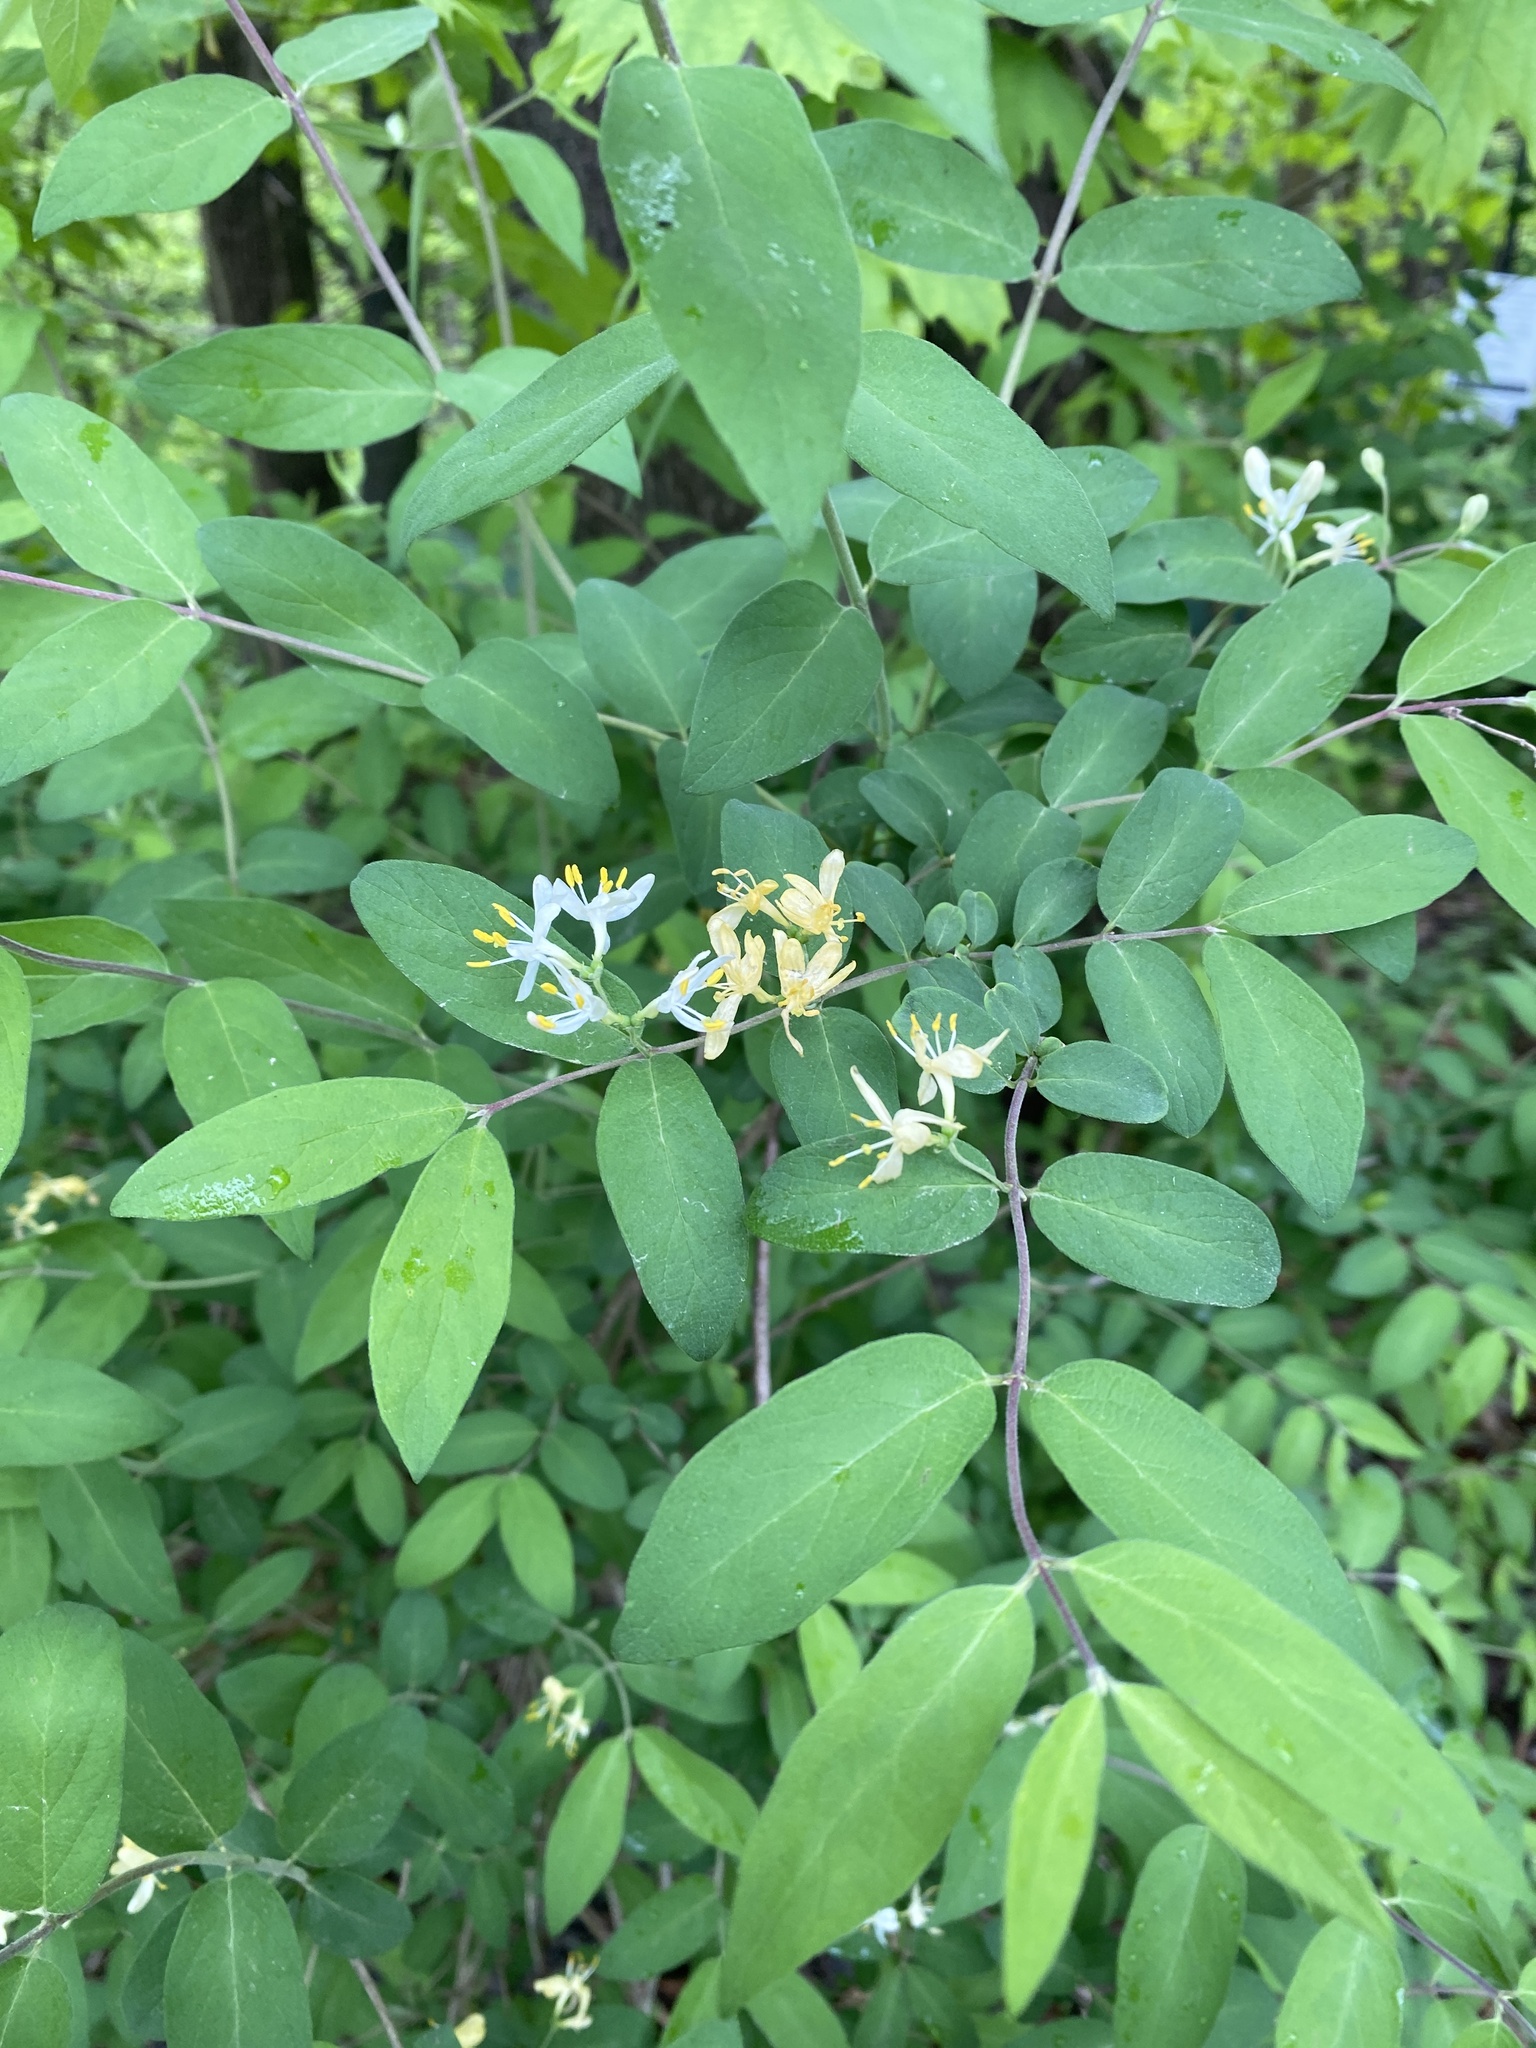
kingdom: Plantae
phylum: Tracheophyta
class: Magnoliopsida
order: Dipsacales
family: Caprifoliaceae
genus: Lonicera
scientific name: Lonicera morrowii
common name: Morrow's honeysuckle
